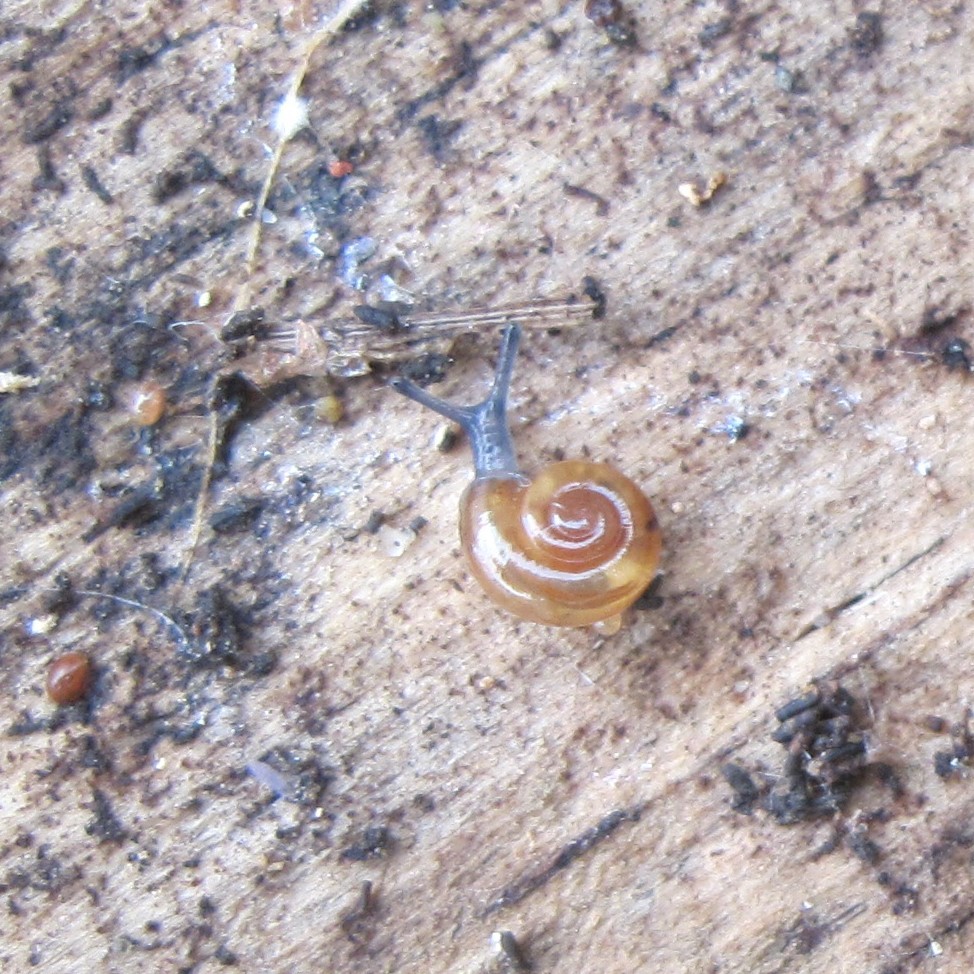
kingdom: Animalia
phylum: Mollusca
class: Gastropoda
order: Stylommatophora
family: Oxychilidae
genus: Oxychilus
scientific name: Oxychilus draparnaudi
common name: Draparnaud's glass snail
